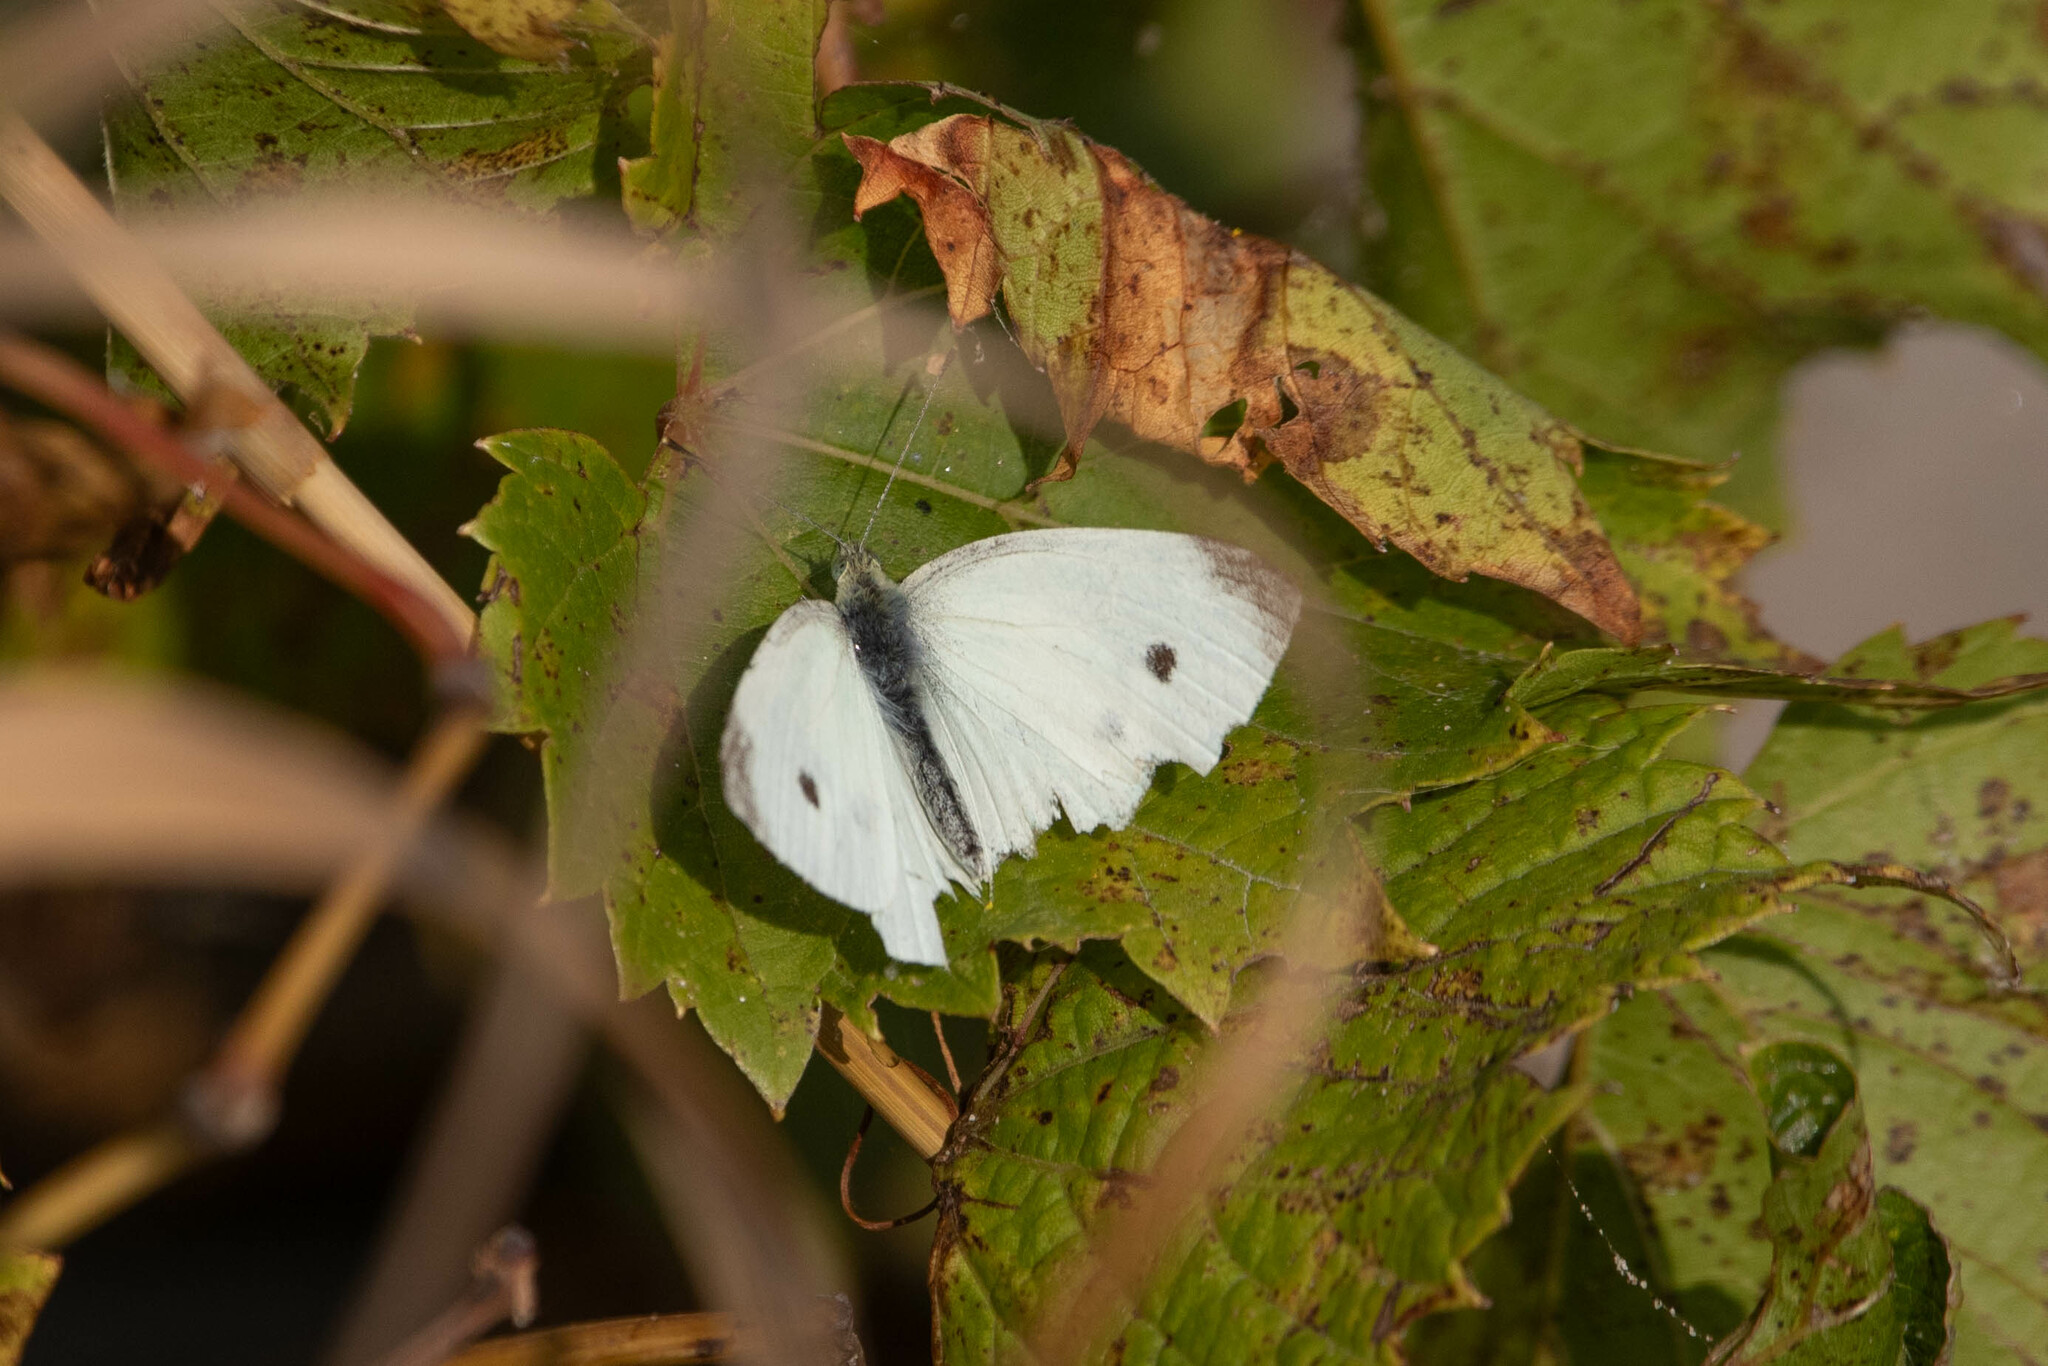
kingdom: Animalia
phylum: Arthropoda
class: Insecta
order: Lepidoptera
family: Pieridae
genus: Pieris
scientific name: Pieris rapae
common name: Small white
